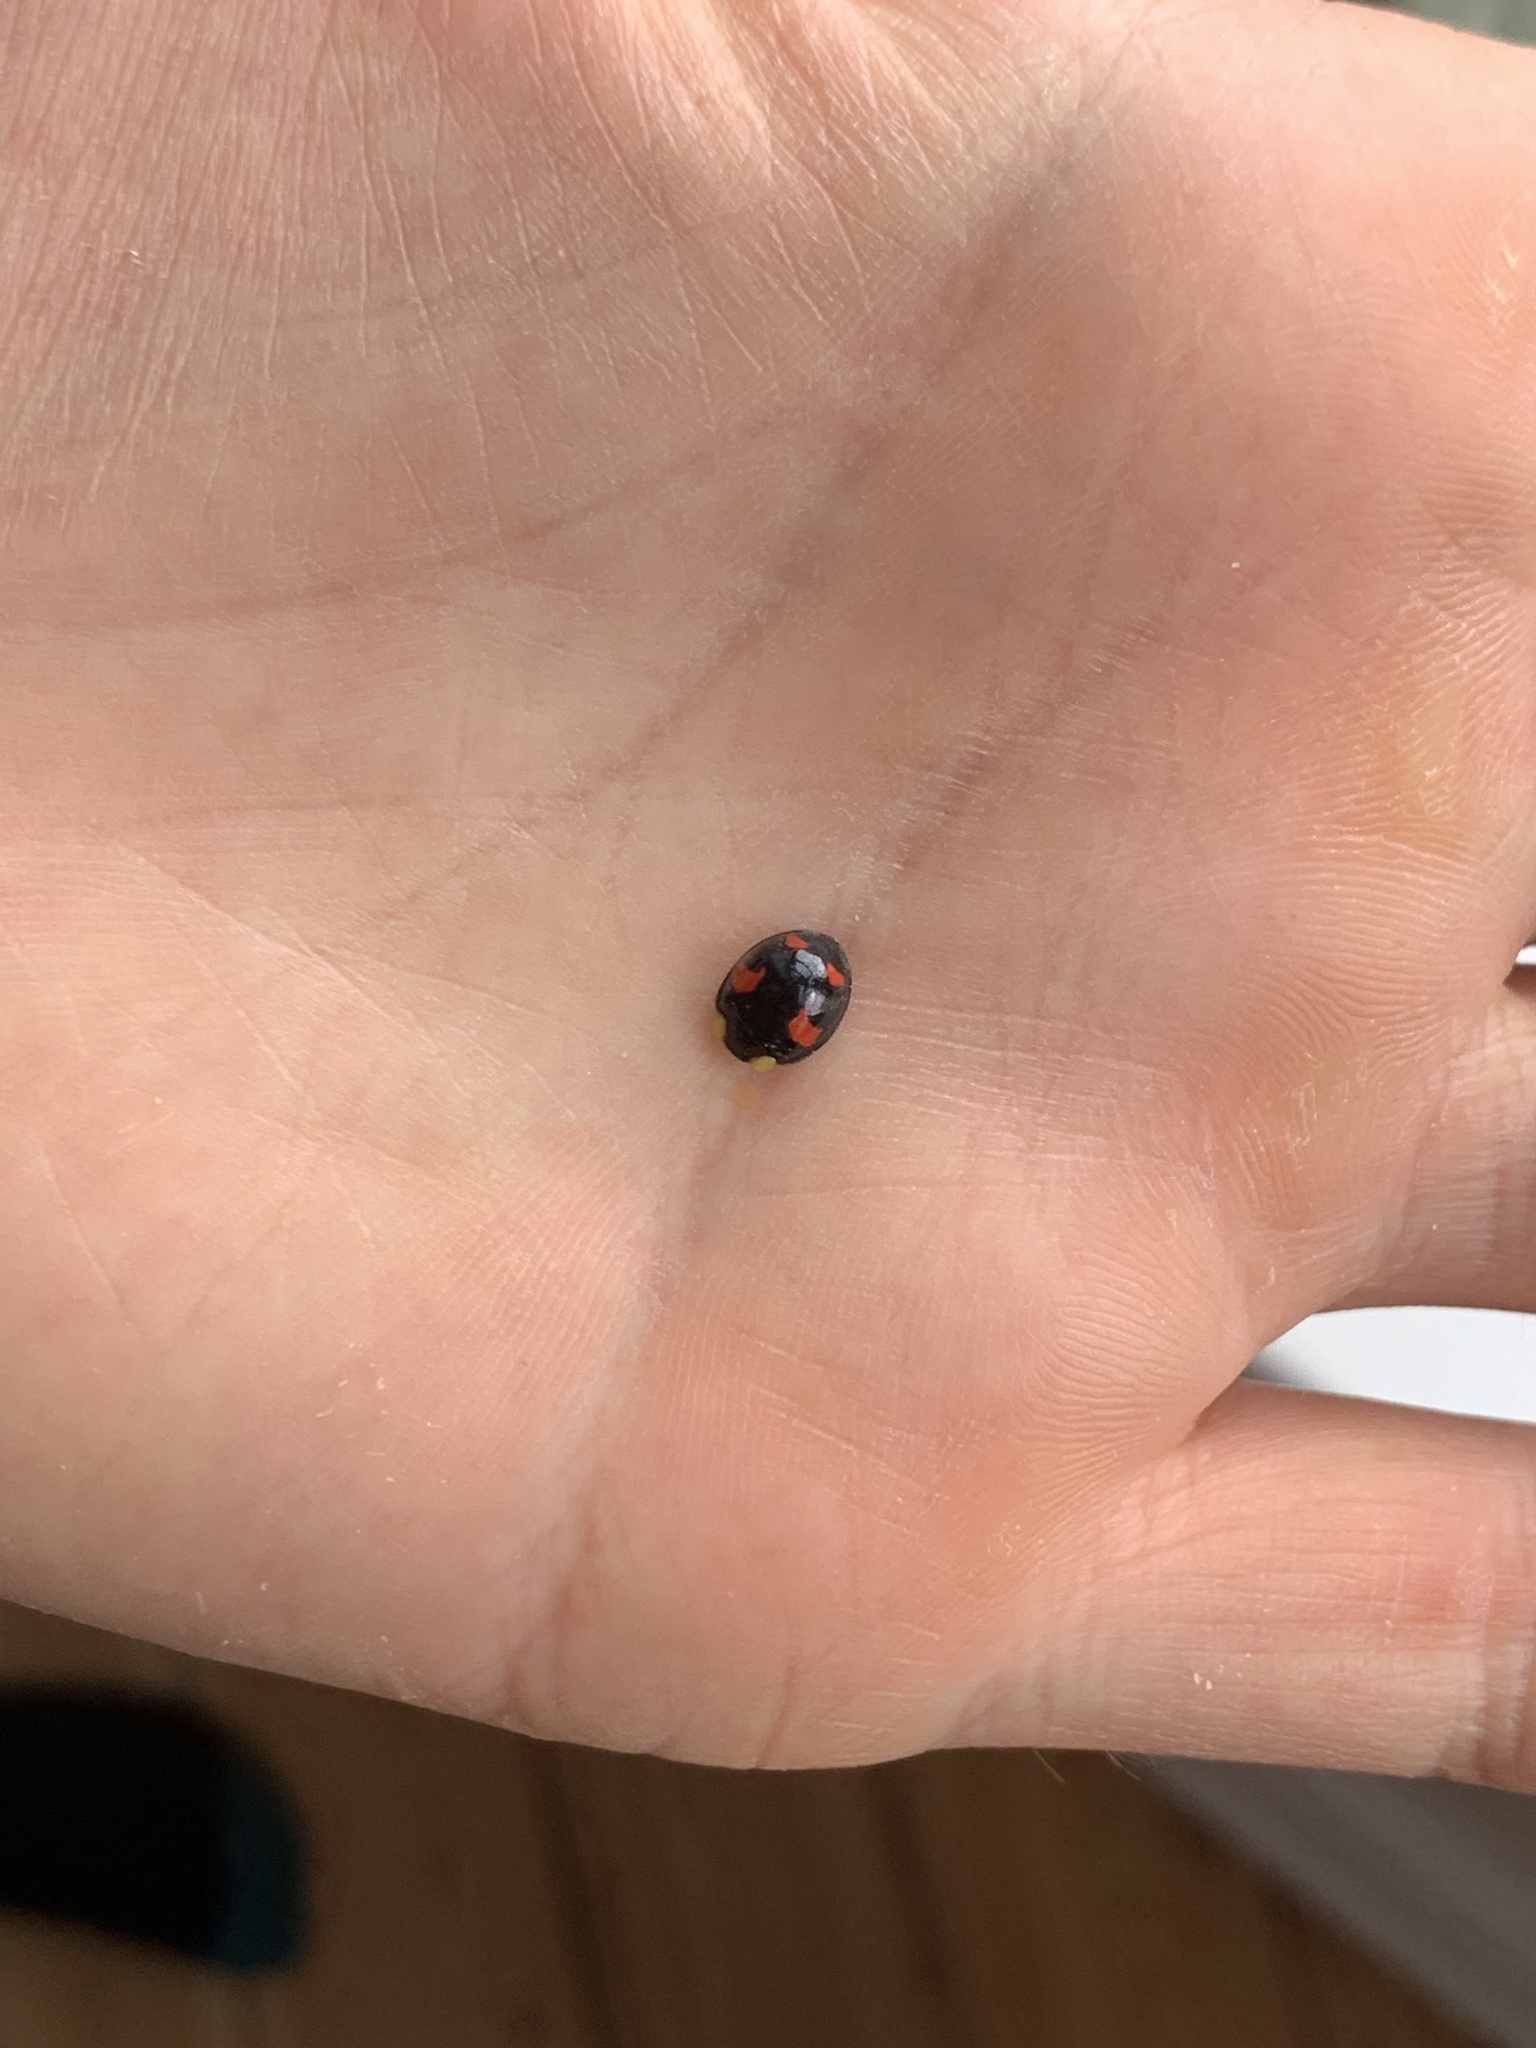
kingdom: Animalia
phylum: Arthropoda
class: Insecta
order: Coleoptera
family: Coccinellidae
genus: Harmonia
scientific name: Harmonia axyridis
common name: Harlequin ladybird
